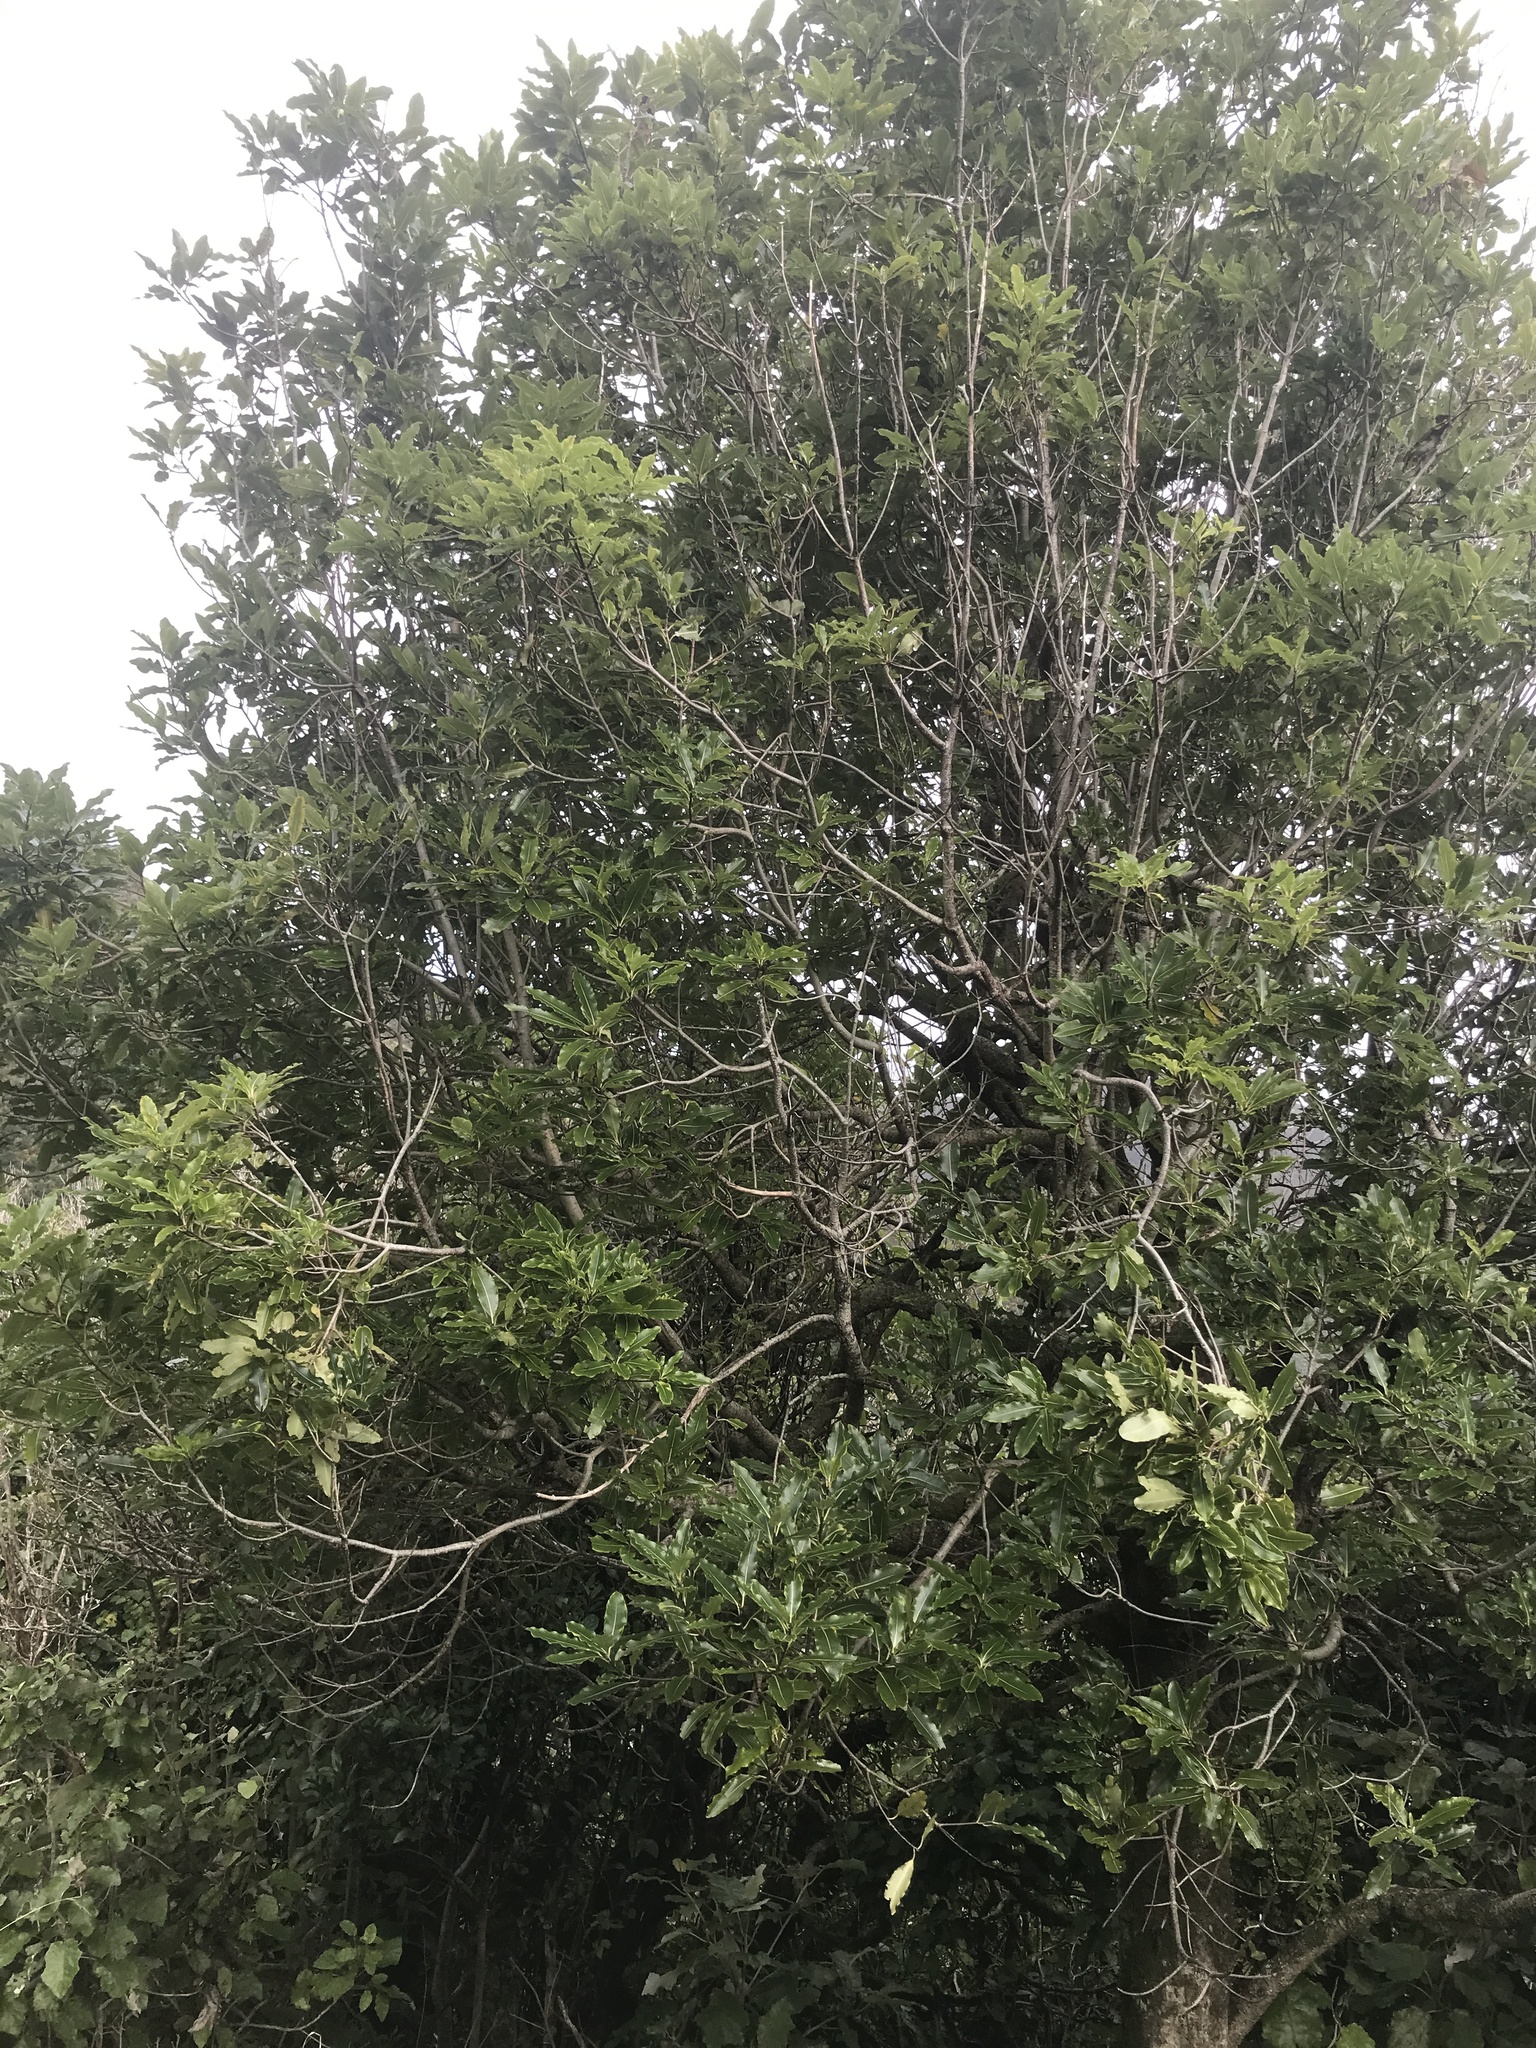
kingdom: Plantae
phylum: Tracheophyta
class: Magnoliopsida
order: Apiales
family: Pittosporaceae
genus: Pittosporum
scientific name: Pittosporum eugenioides
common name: Lemonwood
